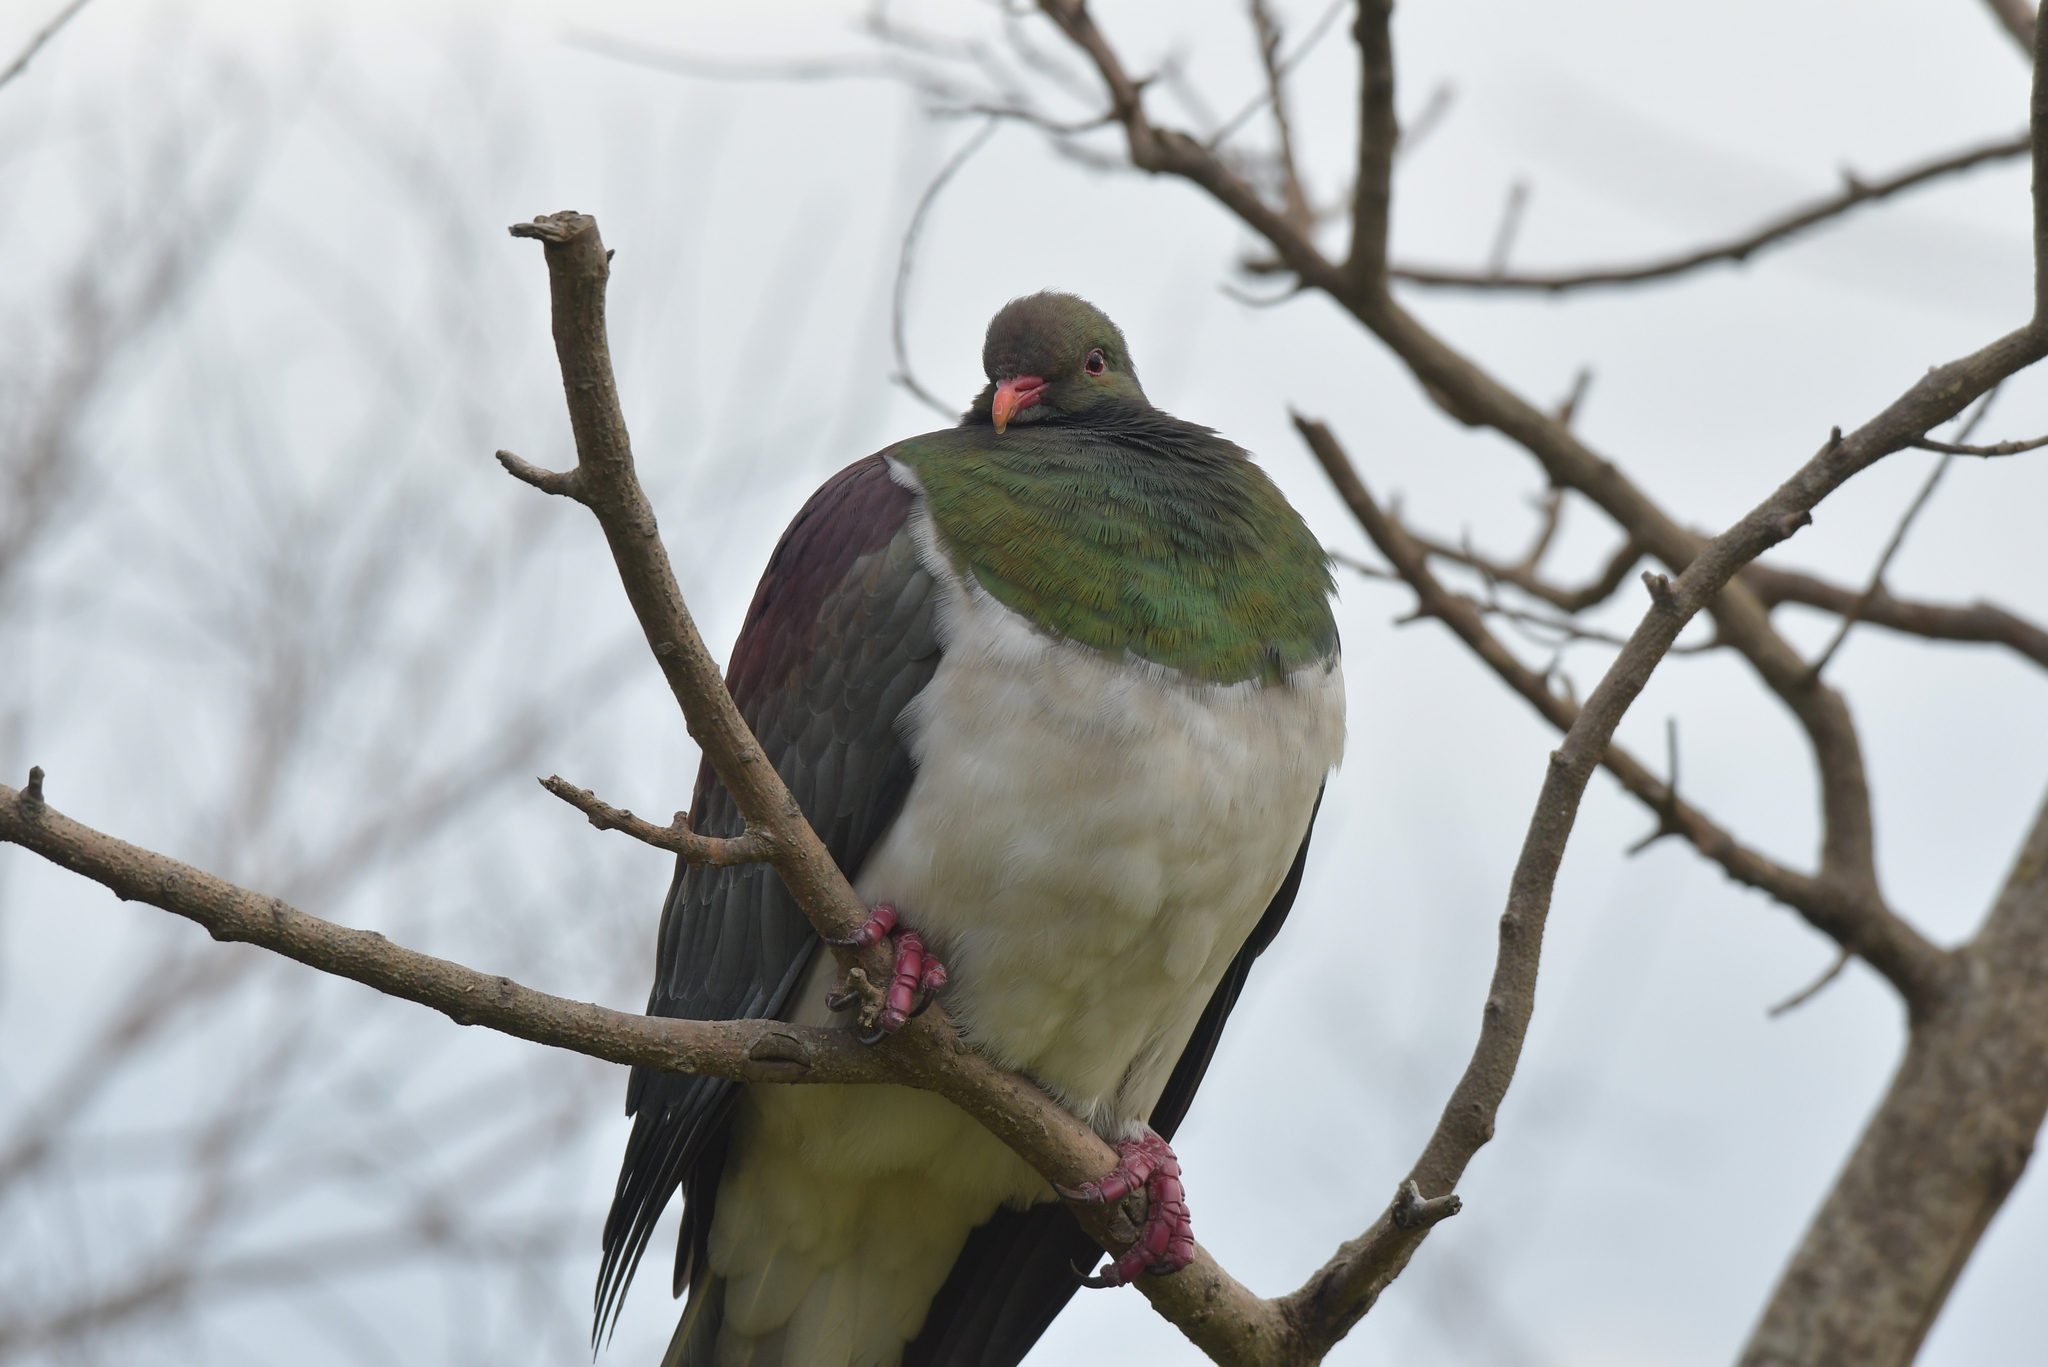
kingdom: Animalia
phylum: Chordata
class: Aves
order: Columbiformes
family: Columbidae
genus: Hemiphaga
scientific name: Hemiphaga novaeseelandiae
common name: New zealand pigeon
